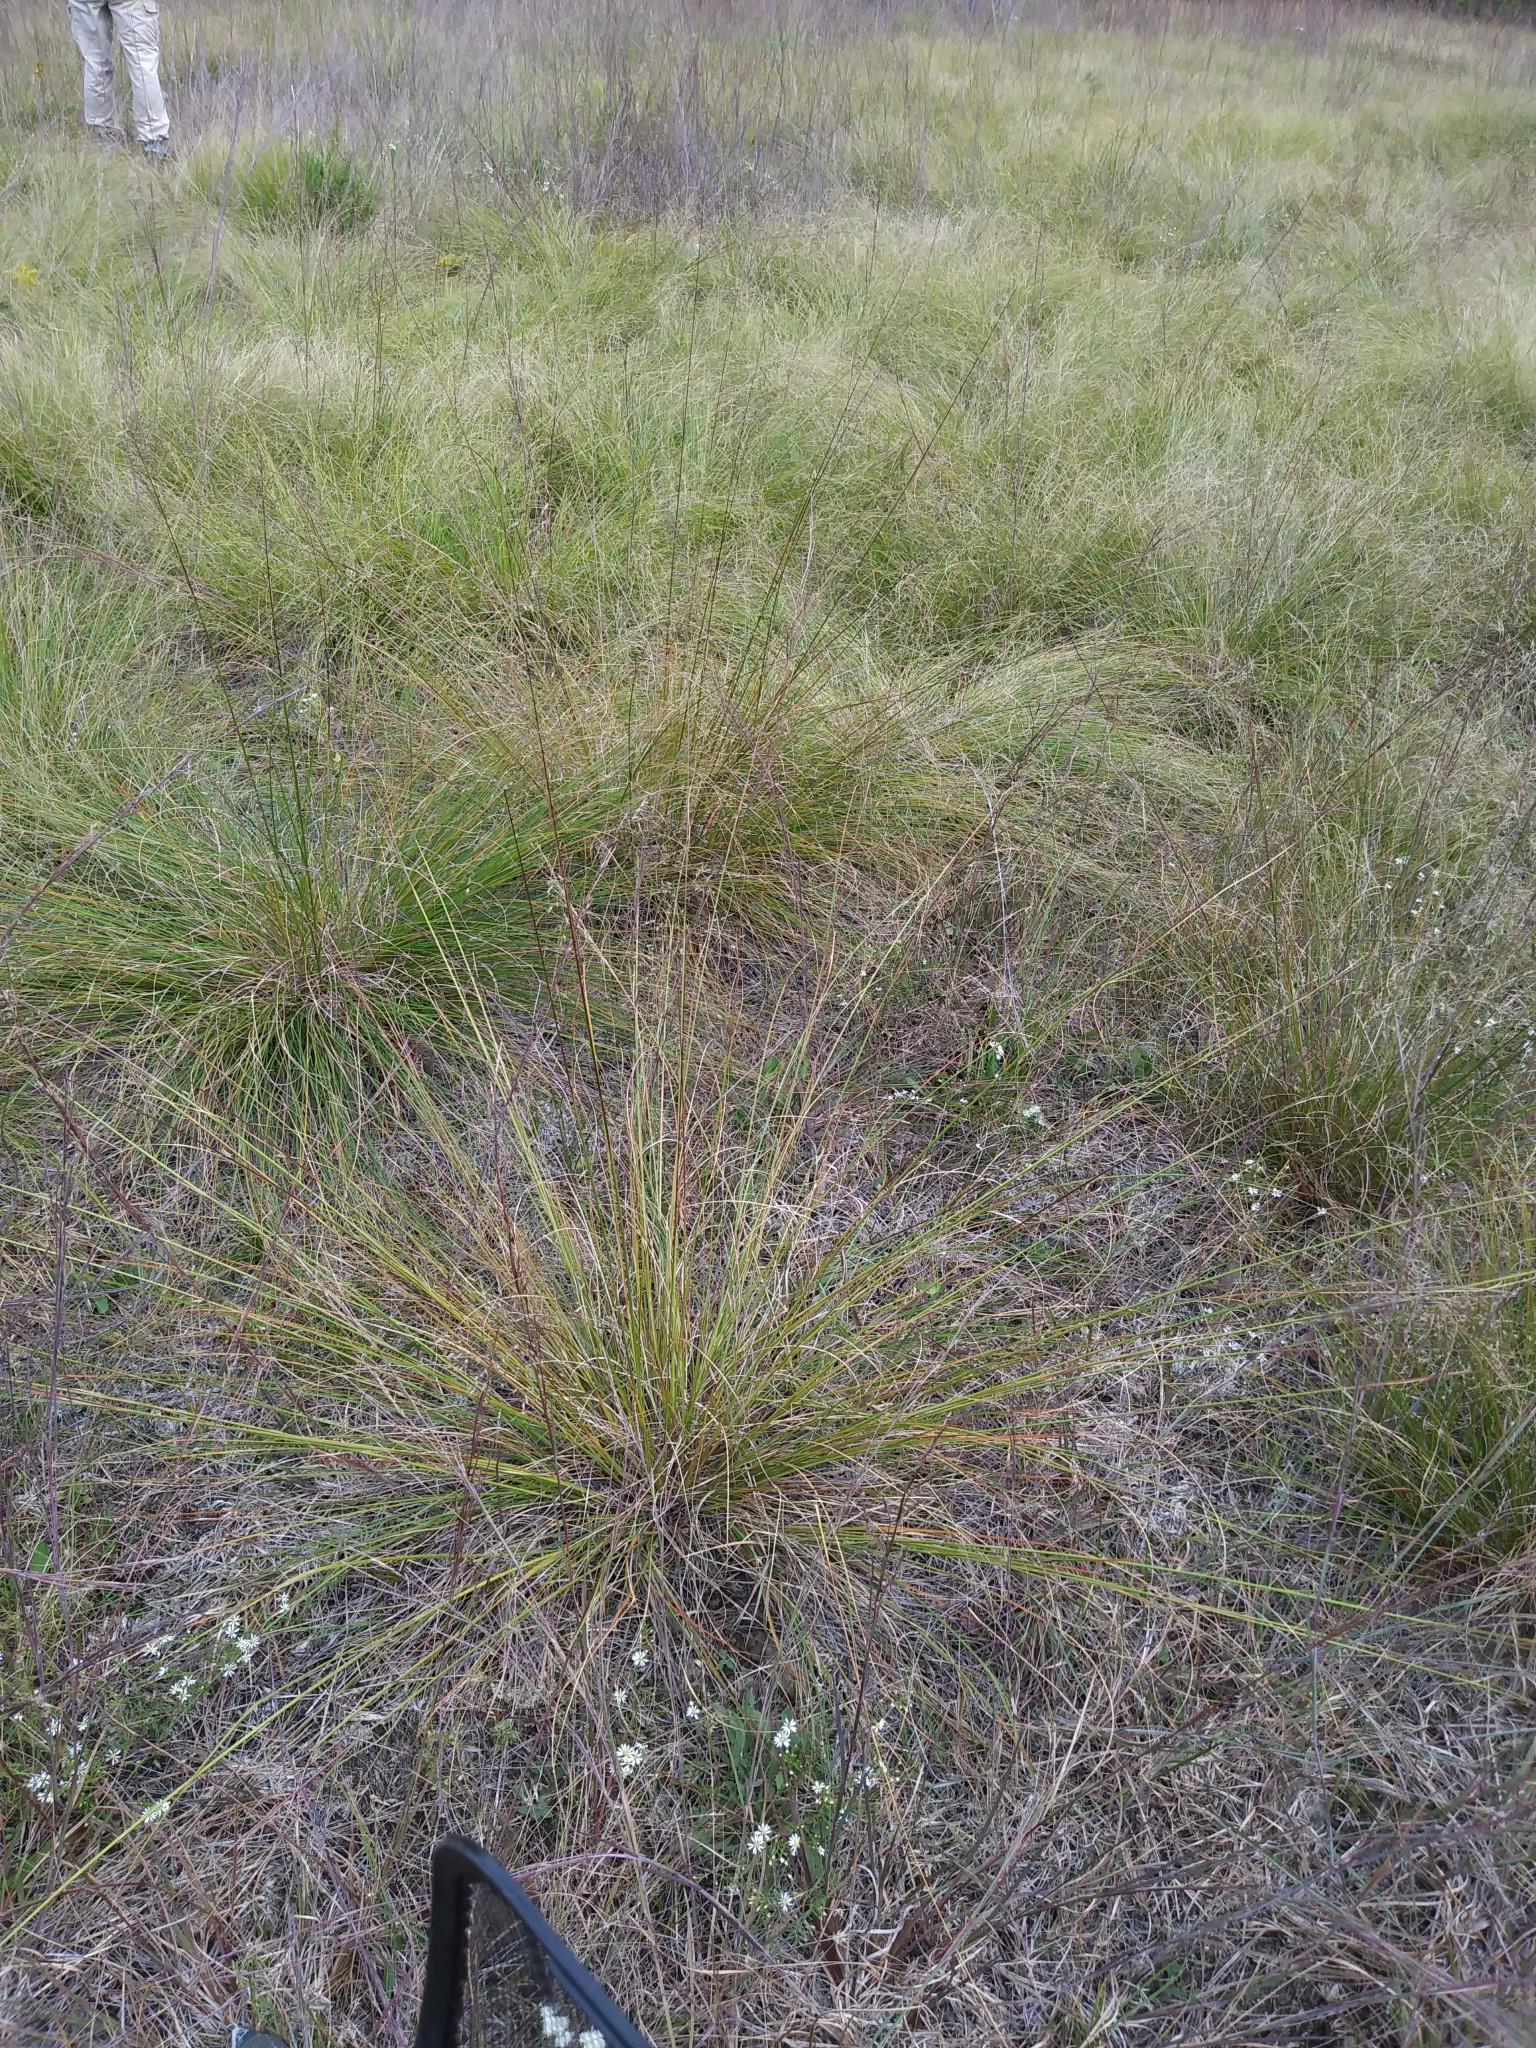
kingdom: Plantae
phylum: Tracheophyta
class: Liliopsida
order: Poales
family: Poaceae
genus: Sporobolus
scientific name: Sporobolus heterolepis
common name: Prairie dropseed
